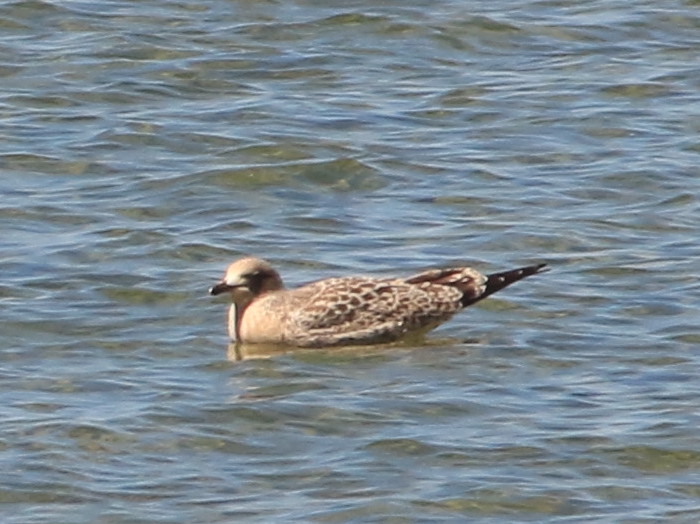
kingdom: Animalia
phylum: Chordata
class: Aves
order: Charadriiformes
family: Laridae
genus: Larus
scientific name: Larus californicus
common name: California gull
